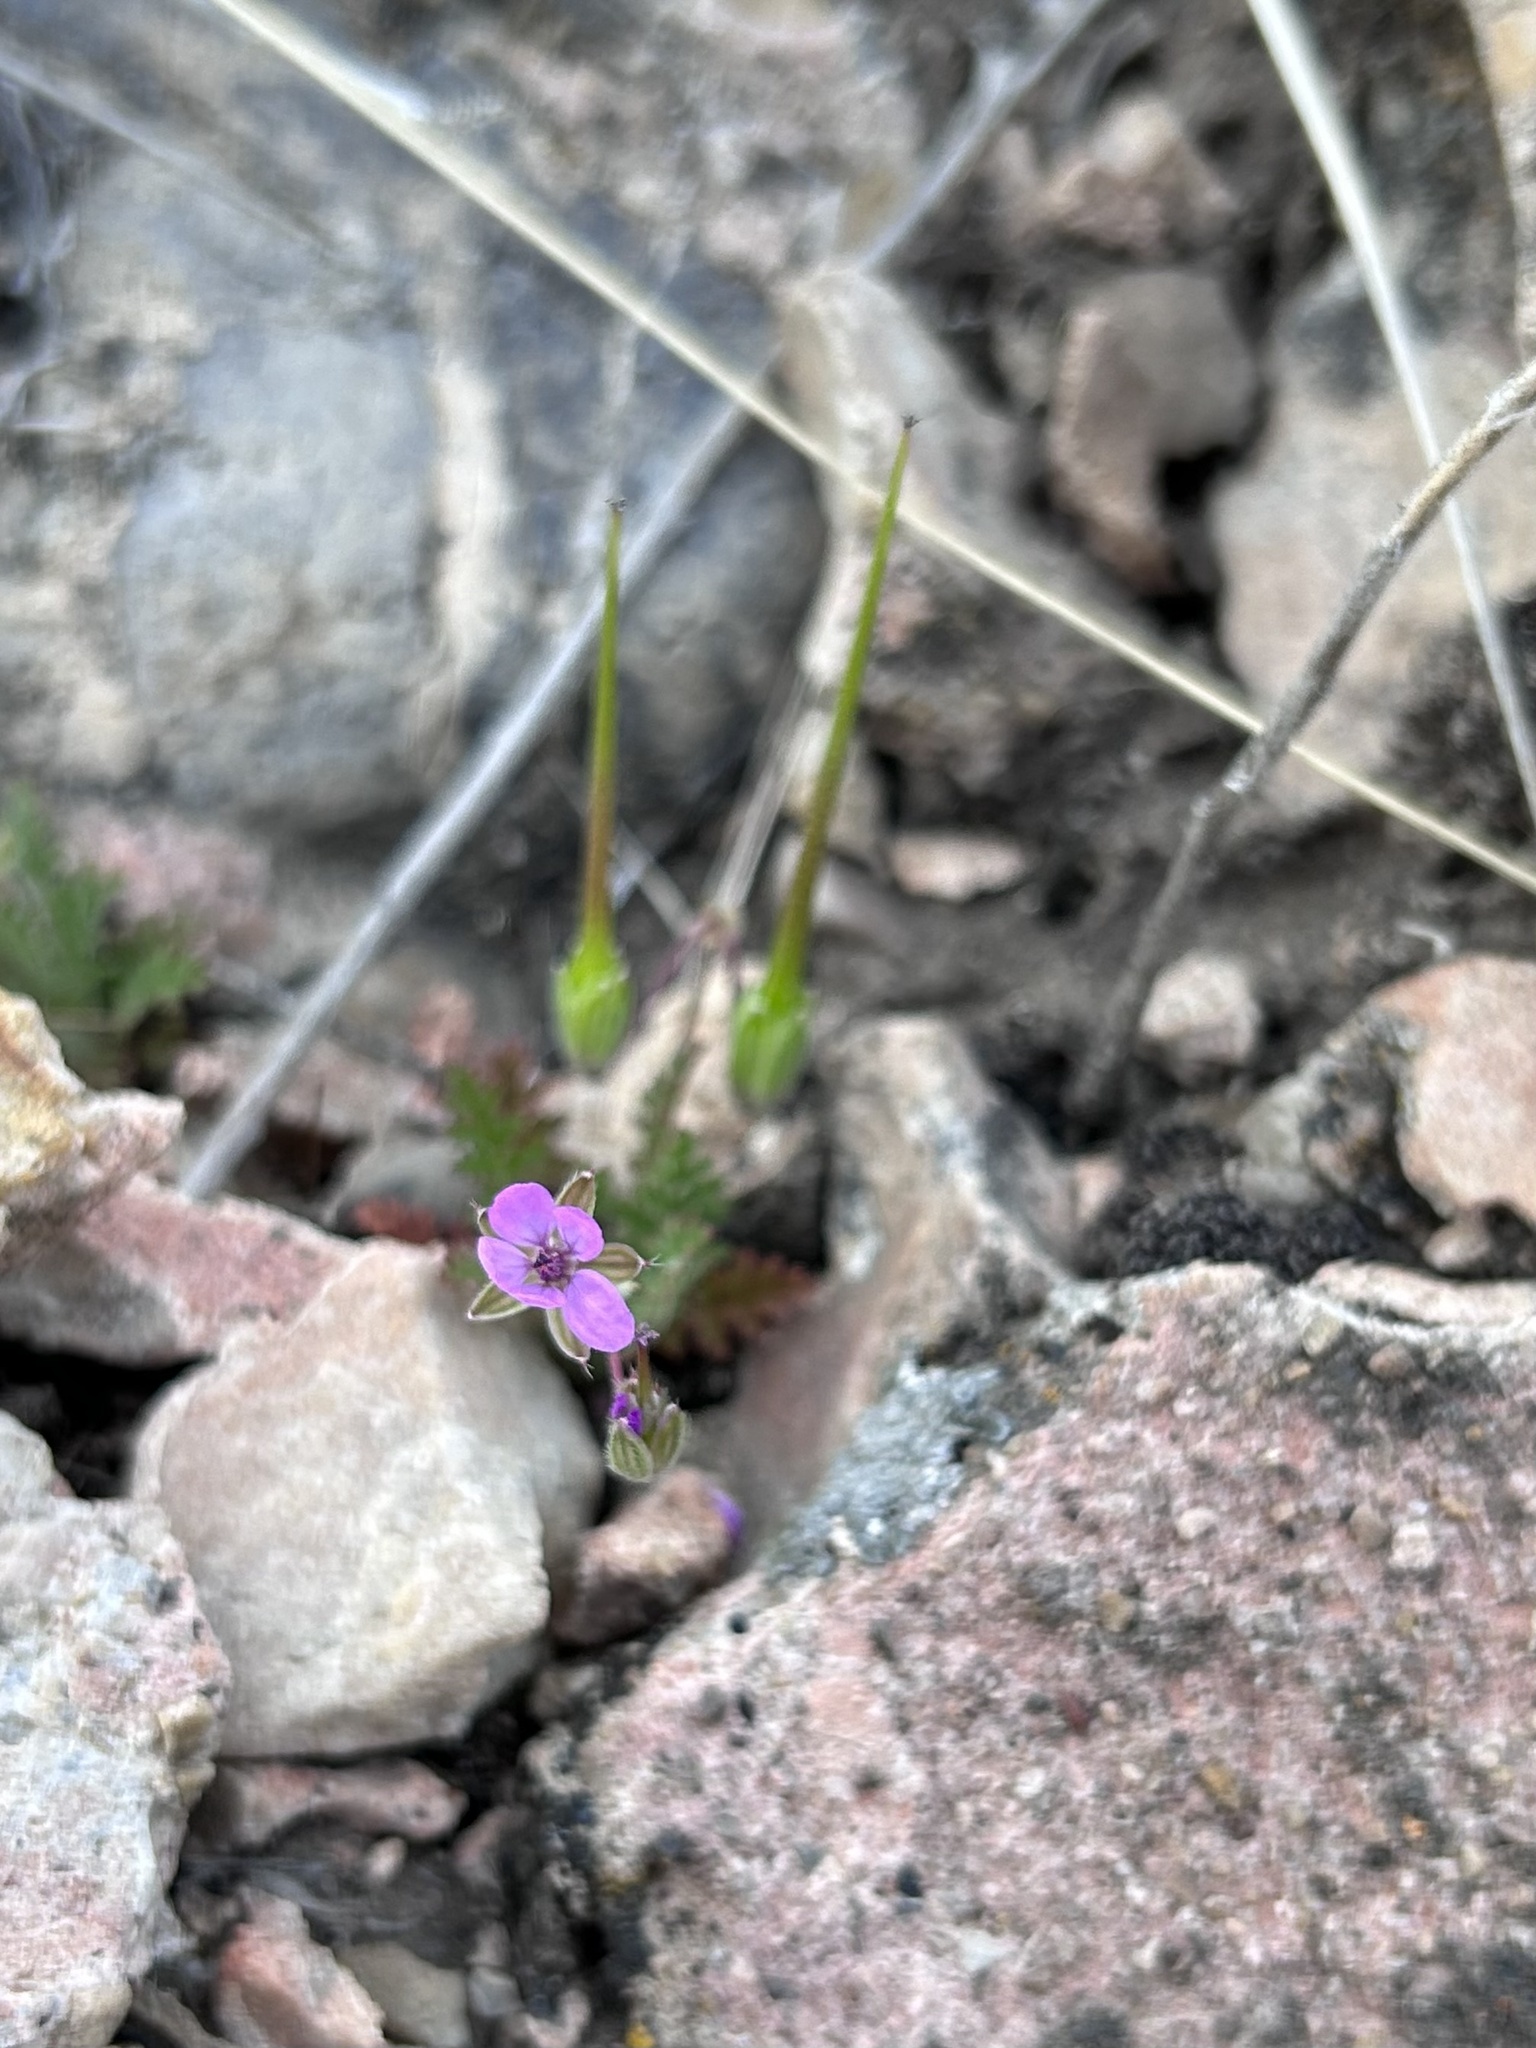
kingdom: Plantae
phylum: Tracheophyta
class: Magnoliopsida
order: Geraniales
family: Geraniaceae
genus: Erodium
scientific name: Erodium cicutarium
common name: Common stork's-bill
